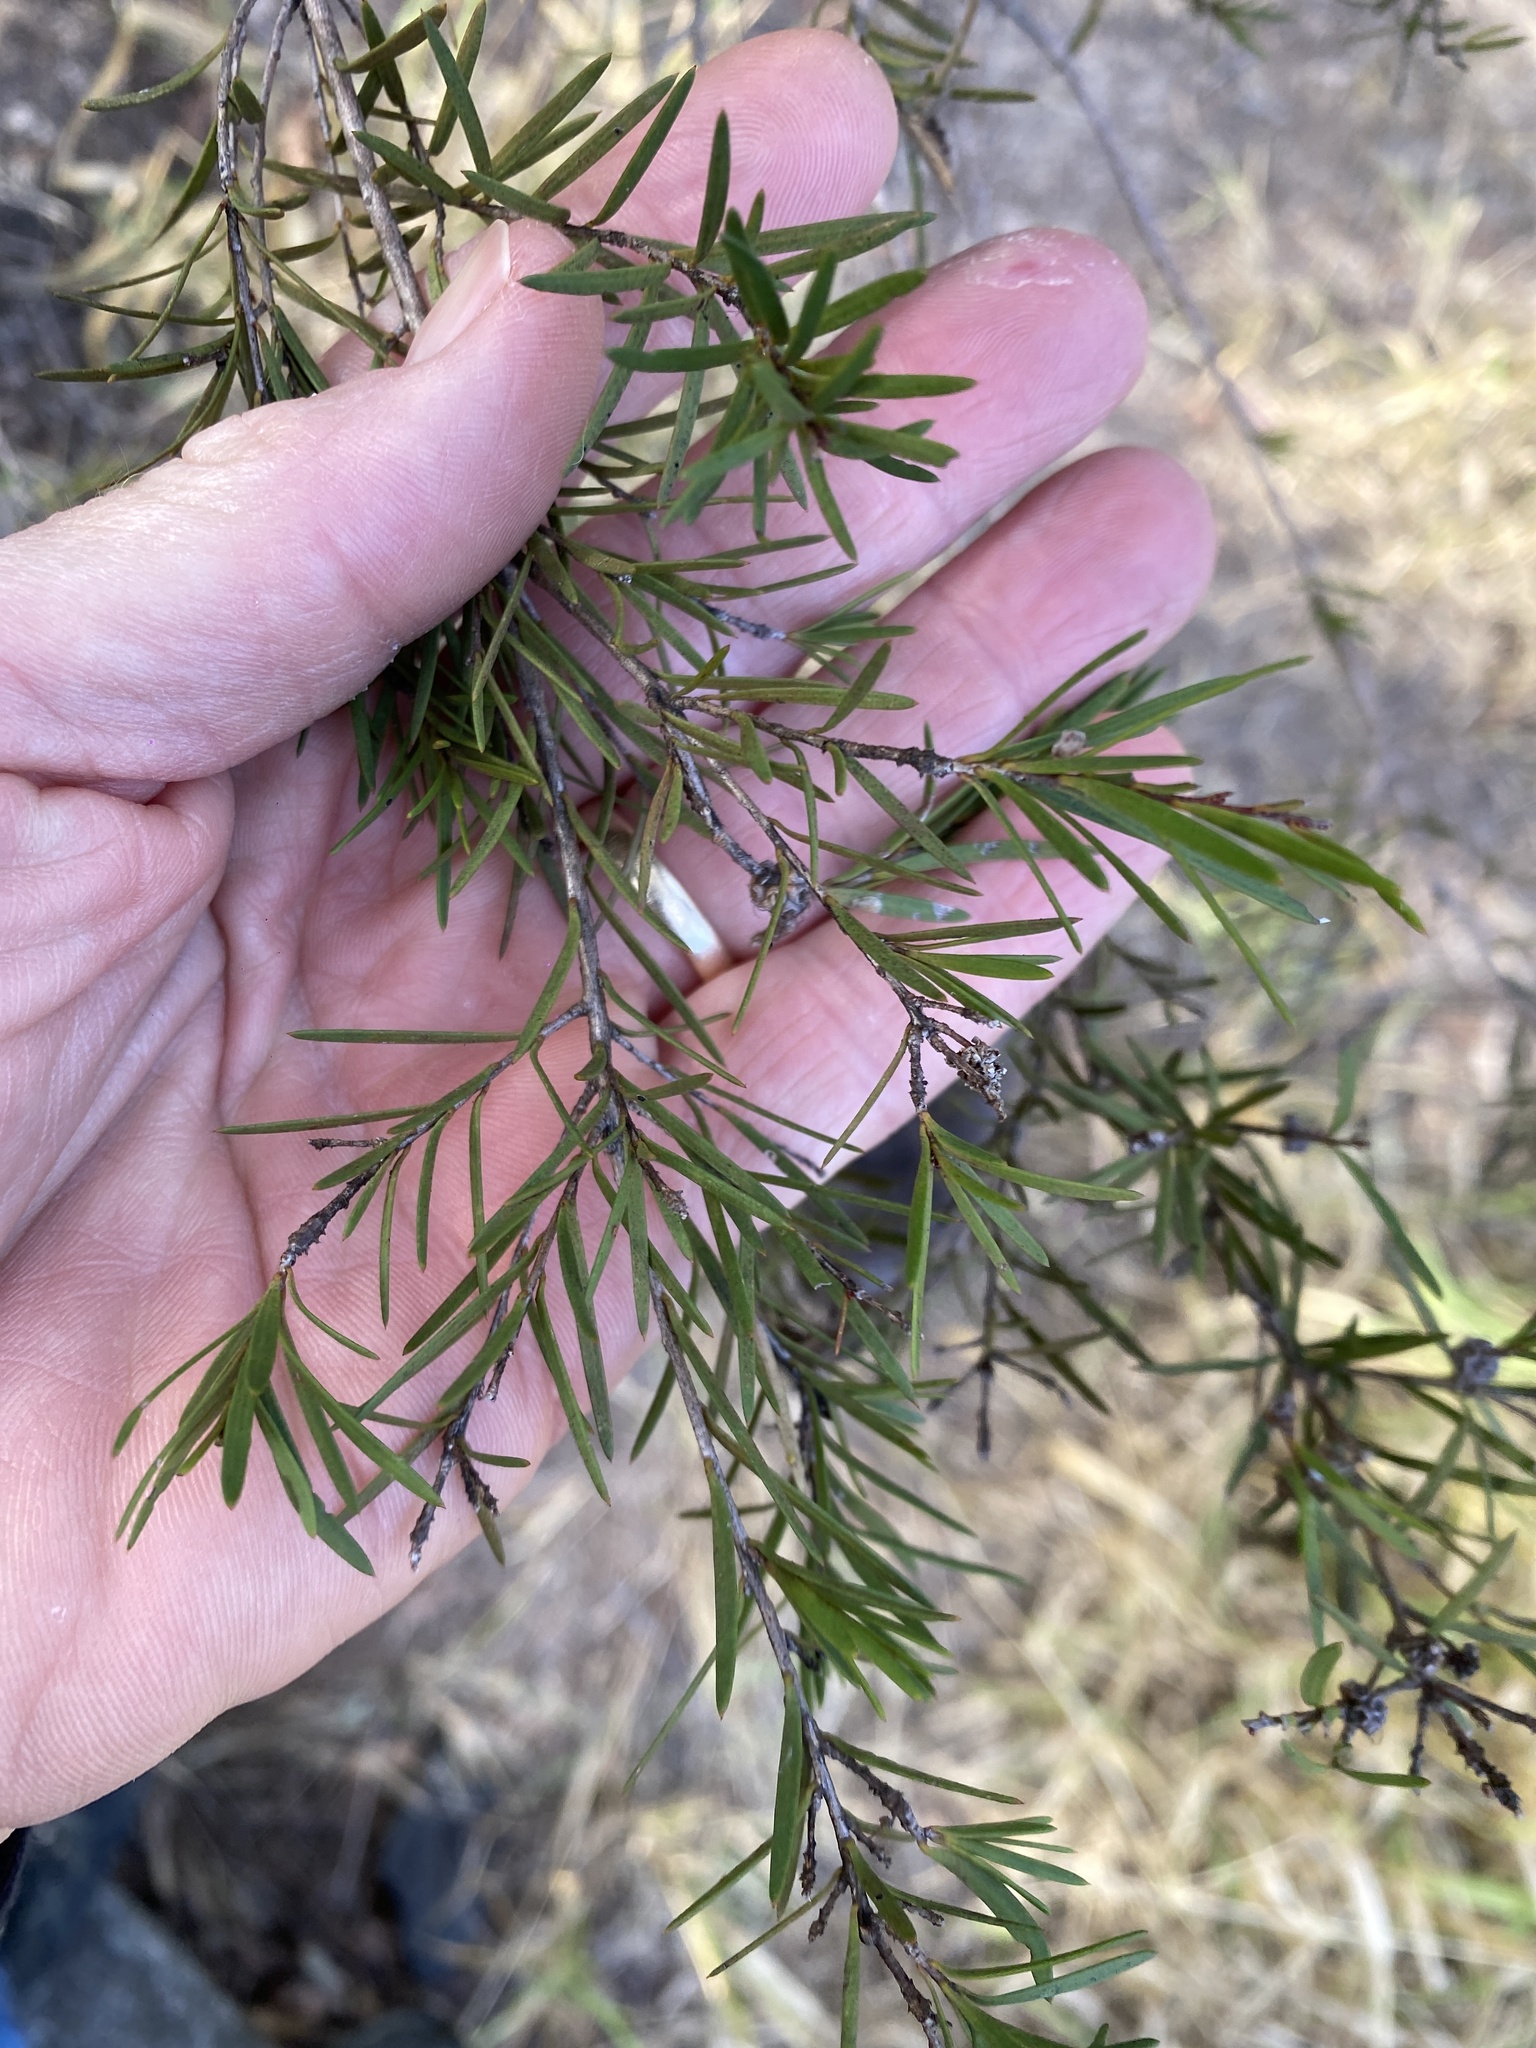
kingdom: Plantae
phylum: Tracheophyta
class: Magnoliopsida
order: Myrtales
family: Myrtaceae
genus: Melaleuca
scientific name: Melaleuca nodosa
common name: Prickly-leaf paperbark
